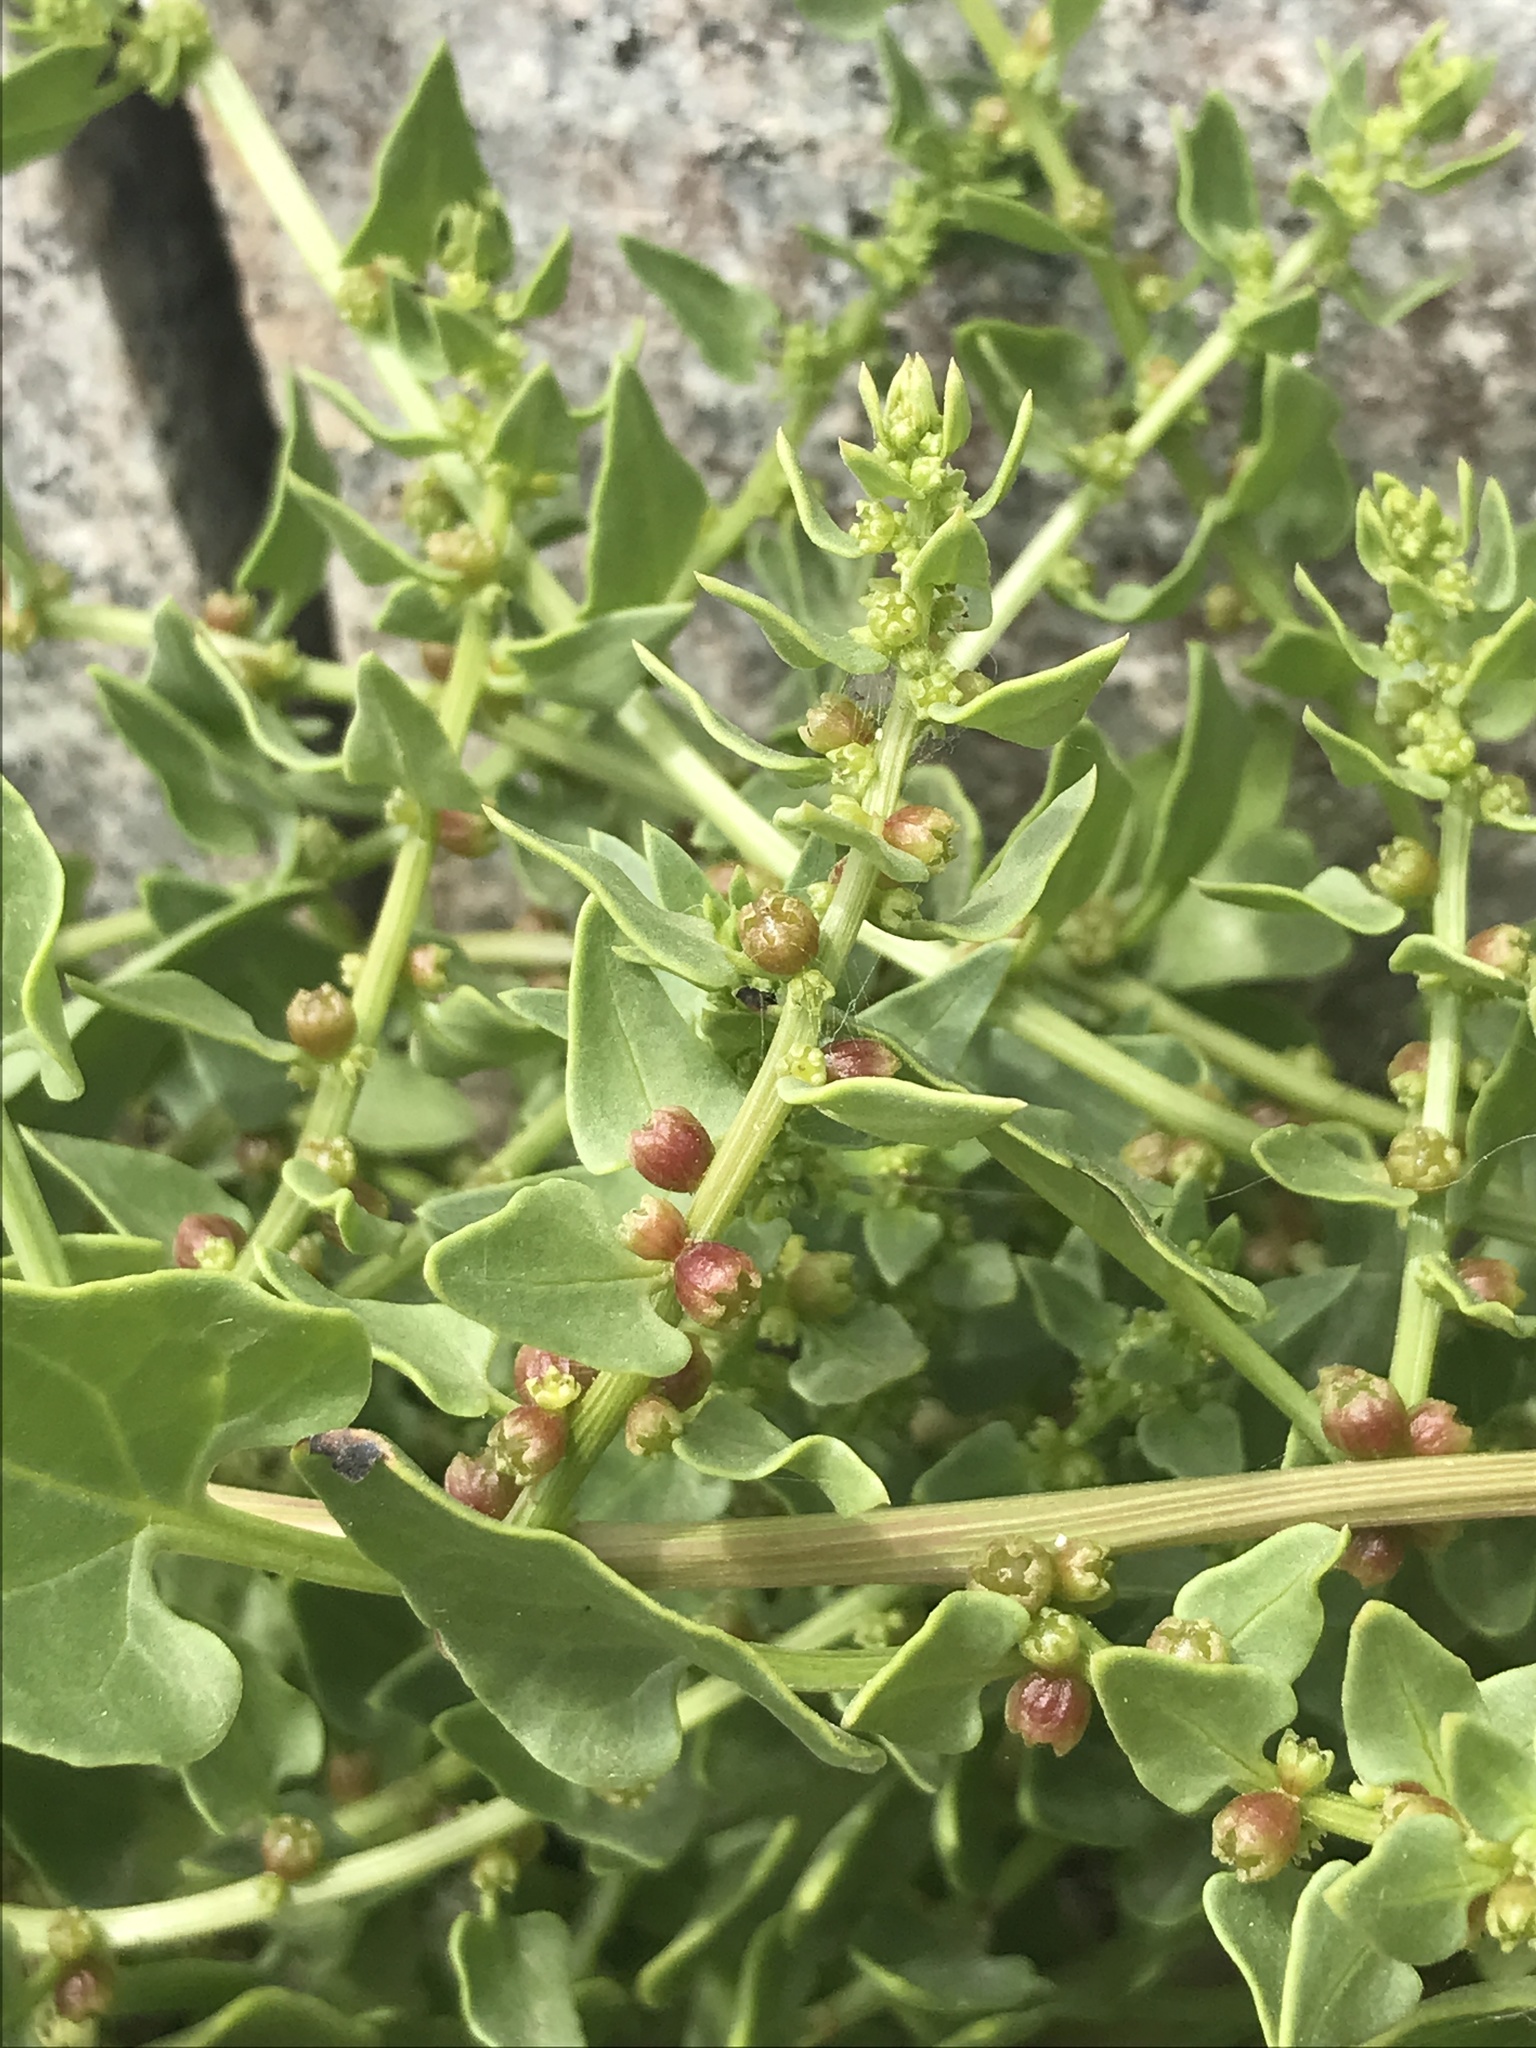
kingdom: Plantae
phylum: Tracheophyta
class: Magnoliopsida
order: Caryophyllales
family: Amaranthaceae
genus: Patellifolia
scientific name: Patellifolia procumbens
